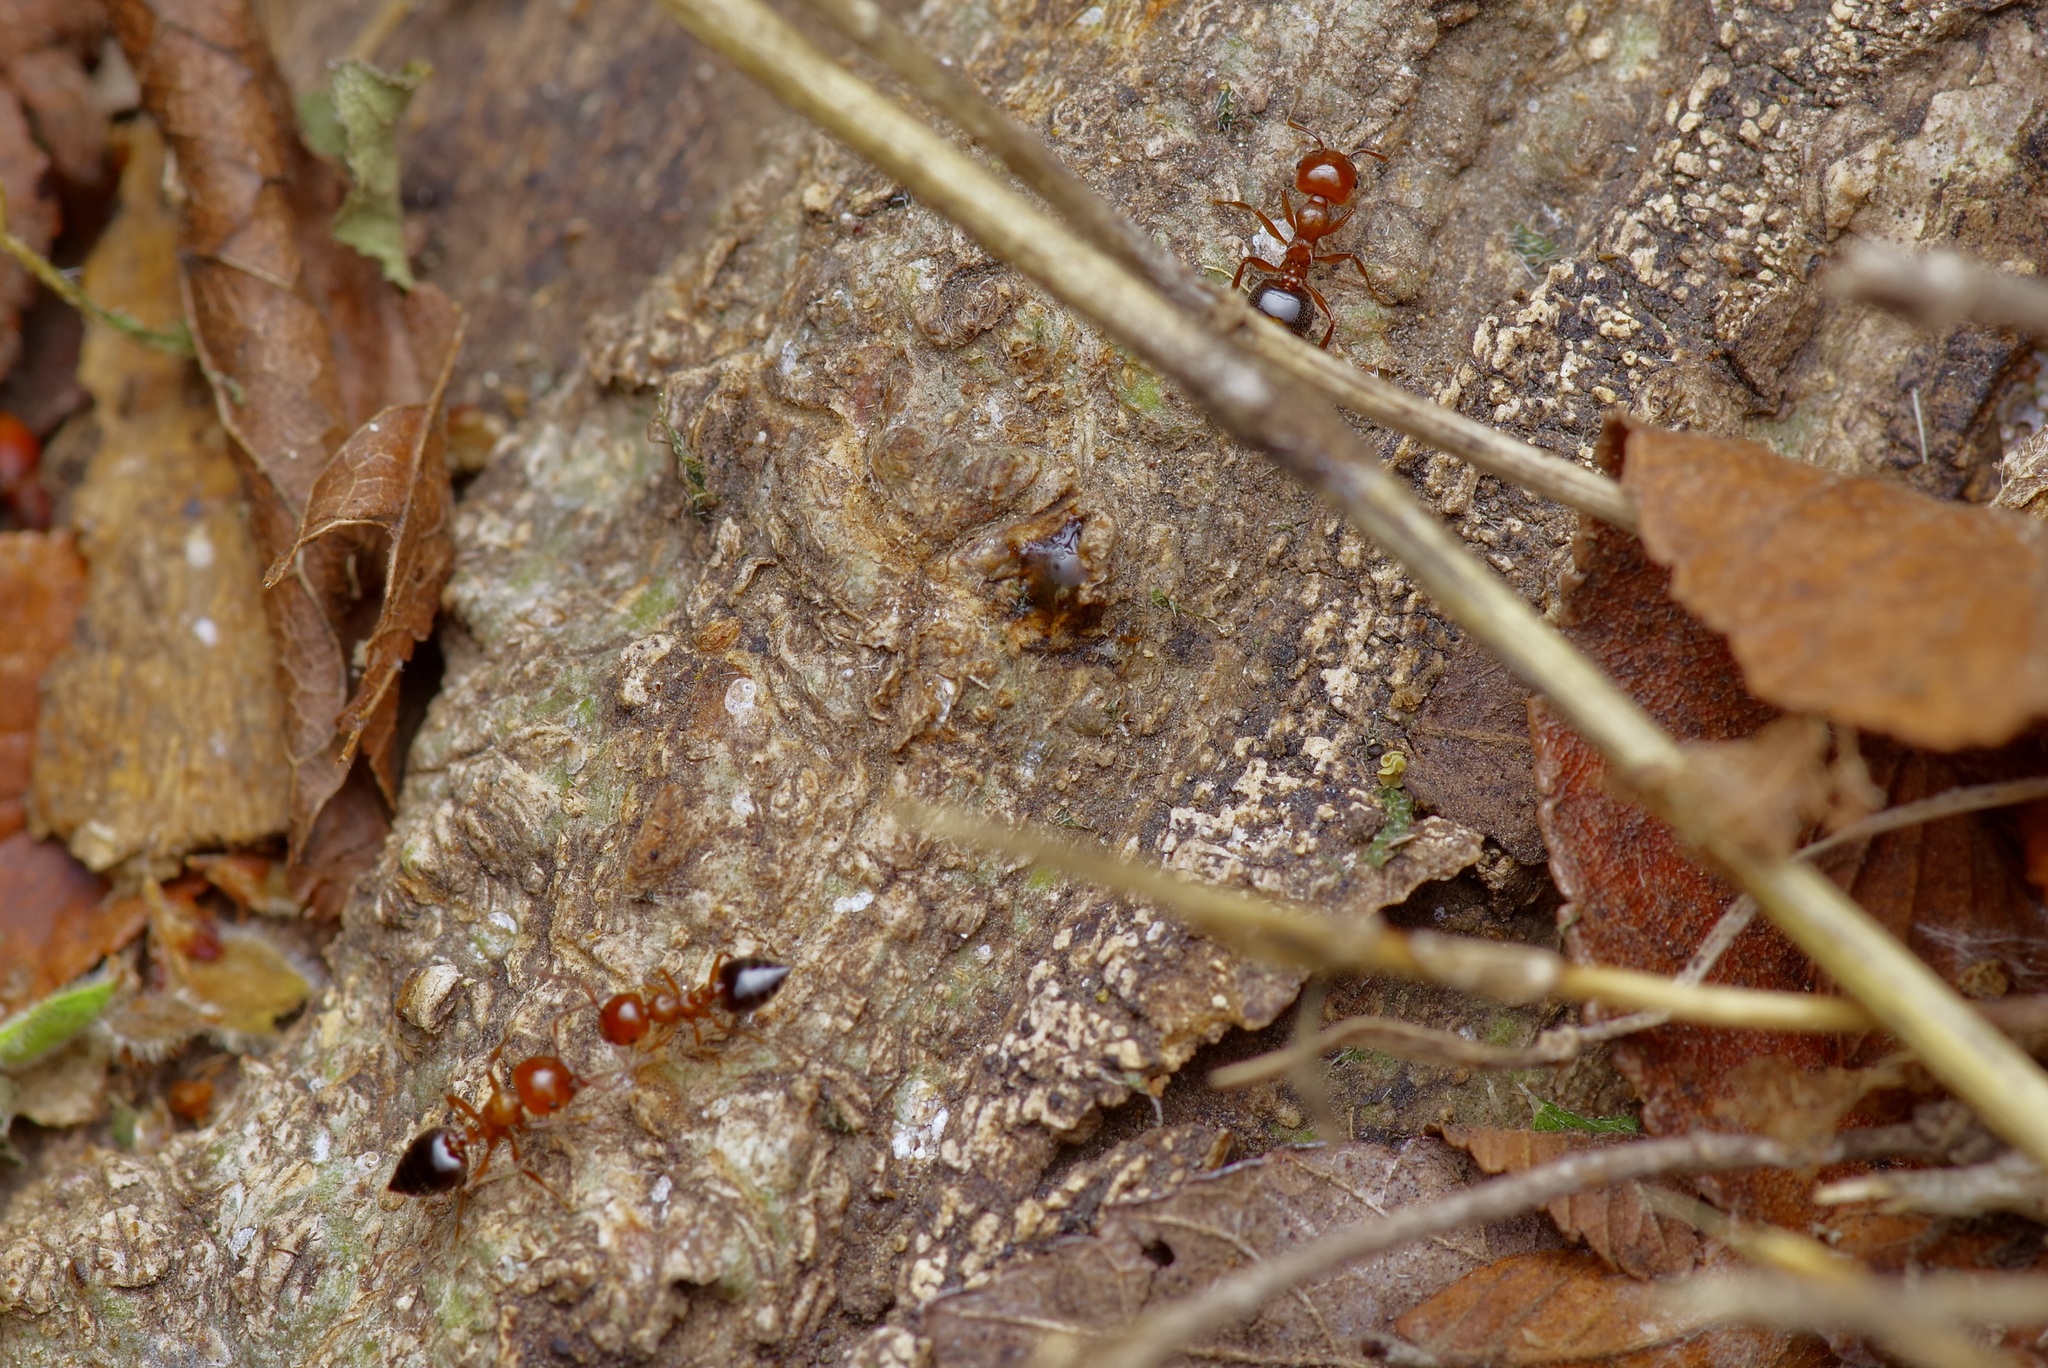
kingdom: Animalia
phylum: Arthropoda
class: Insecta
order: Hymenoptera
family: Formicidae
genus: Crematogaster
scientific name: Crematogaster laeviuscula
